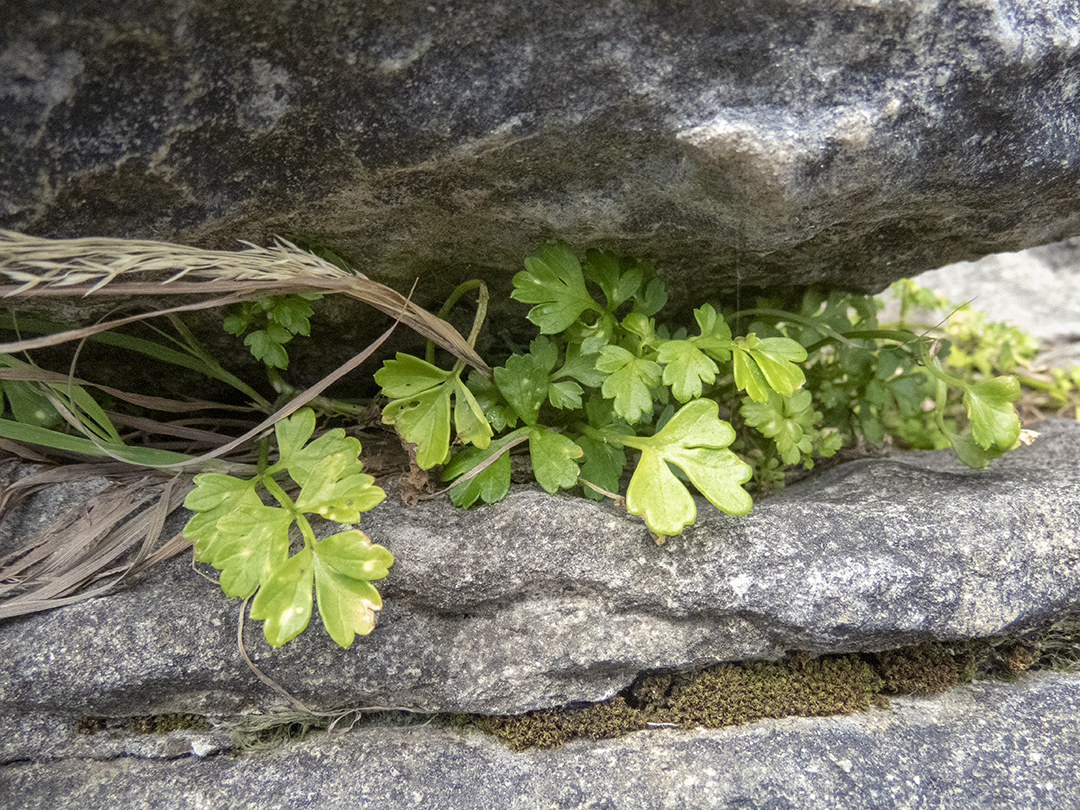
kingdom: Plantae
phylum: Tracheophyta
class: Magnoliopsida
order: Apiales
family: Apiaceae
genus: Apium
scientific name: Apium prostratum
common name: Prostrate marshwort
